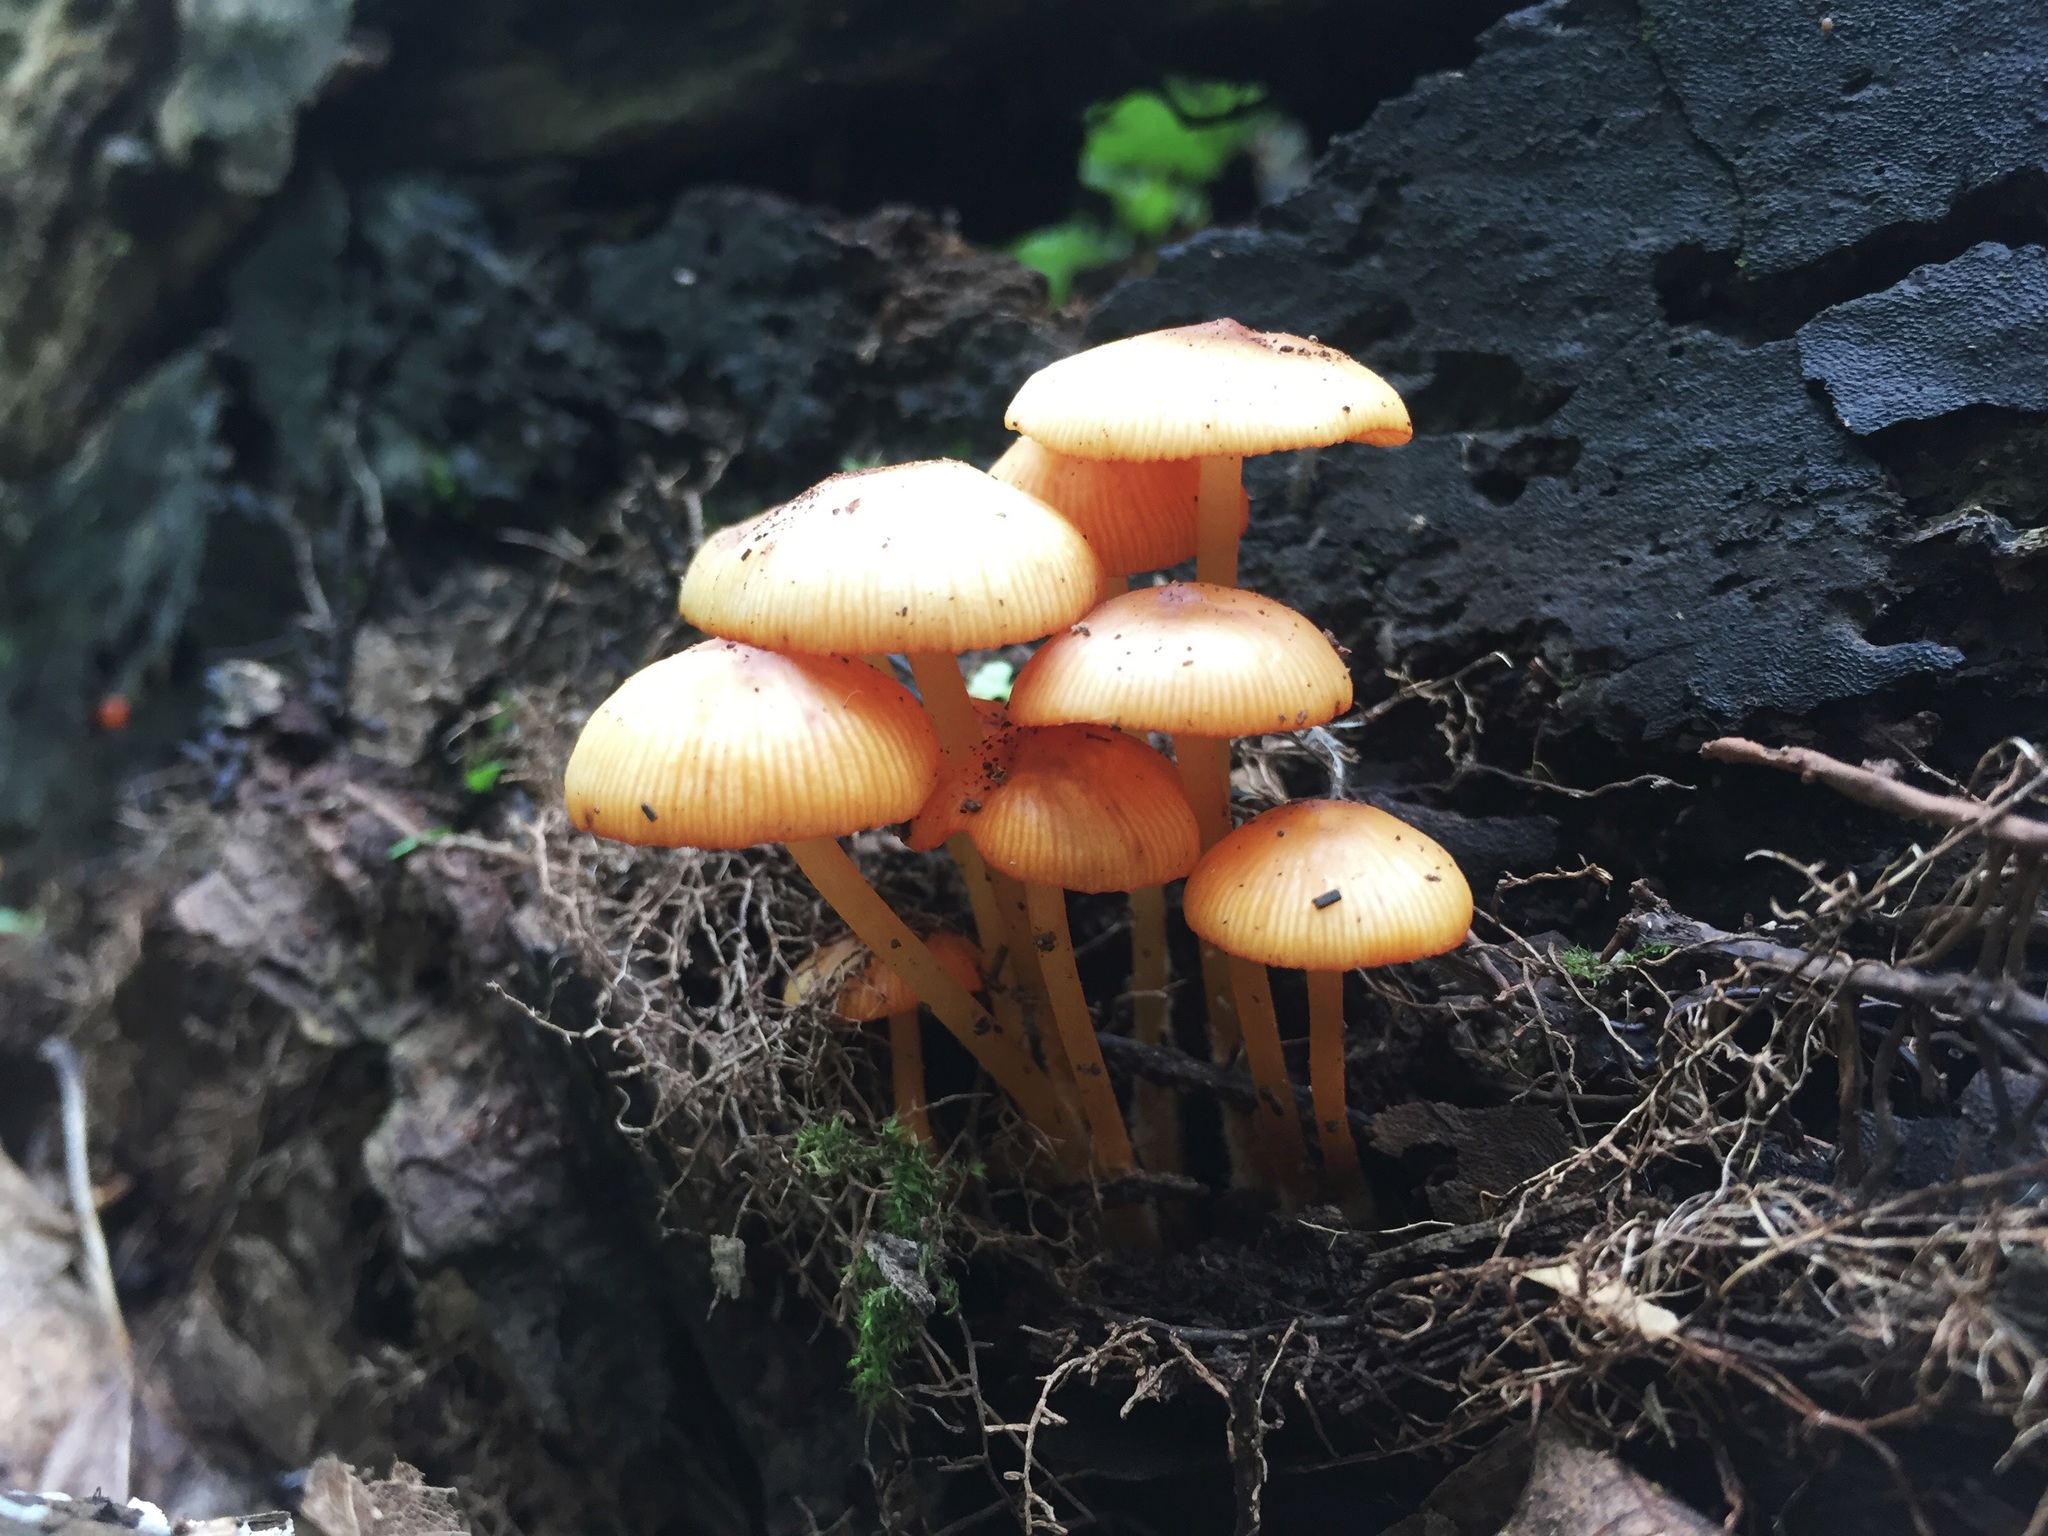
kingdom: Fungi
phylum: Basidiomycota
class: Agaricomycetes
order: Agaricales
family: Mycenaceae
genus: Mycena
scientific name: Mycena leaiana
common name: Orange mycena
